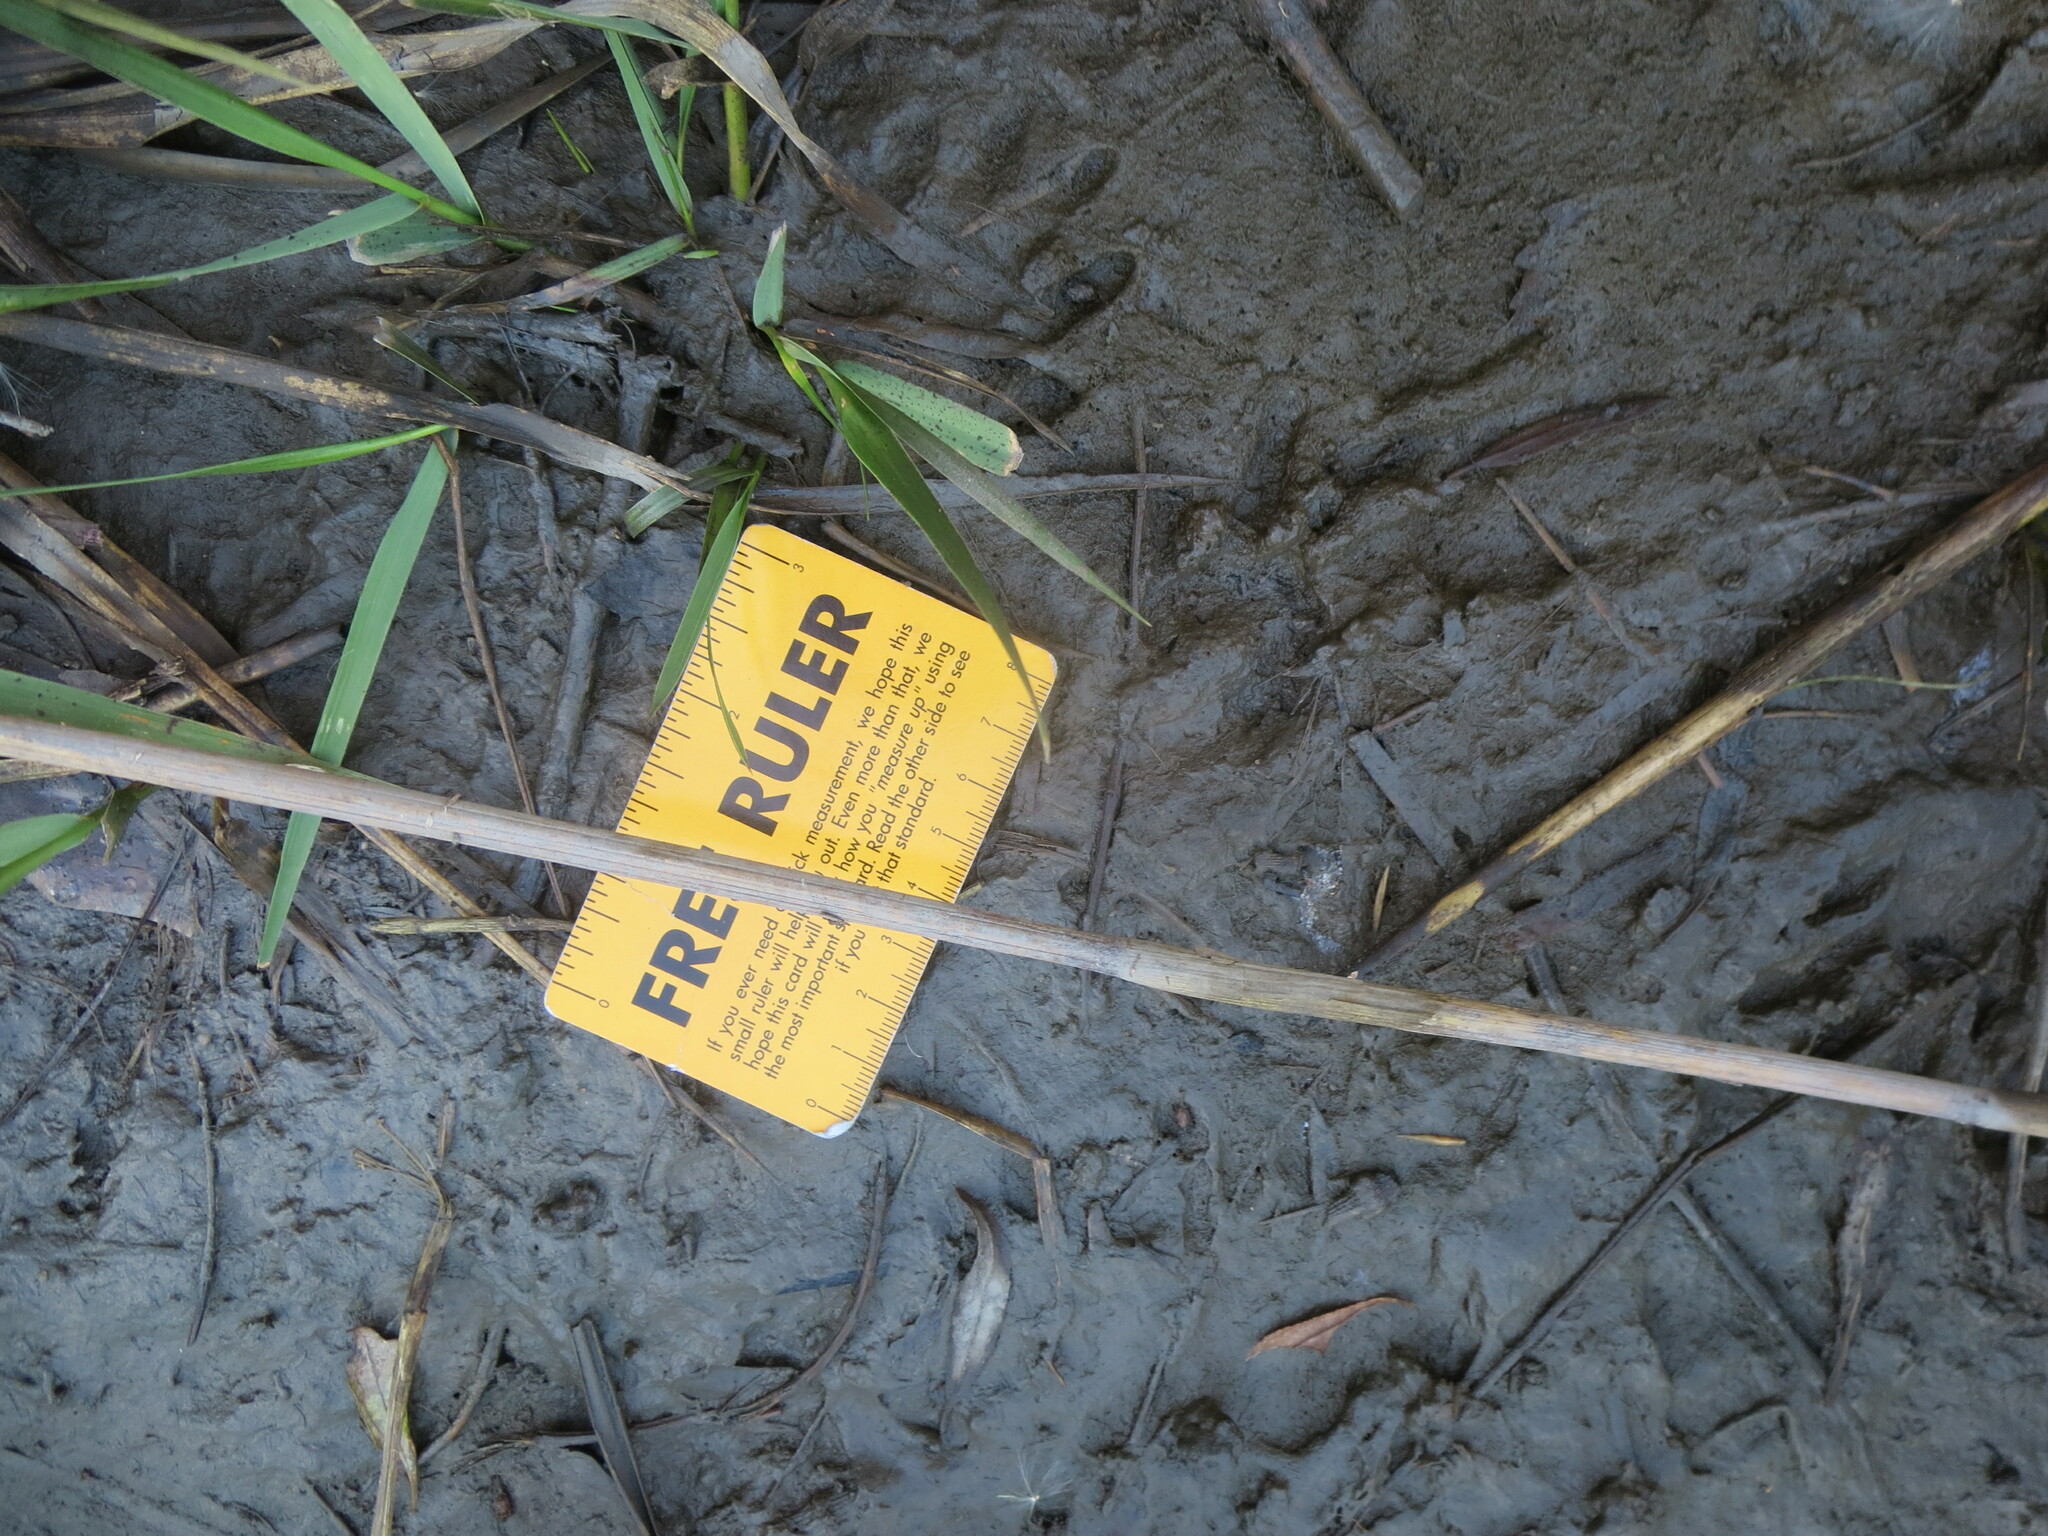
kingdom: Animalia
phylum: Chordata
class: Mammalia
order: Carnivora
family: Procyonidae
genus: Procyon
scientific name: Procyon lotor
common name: Raccoon
